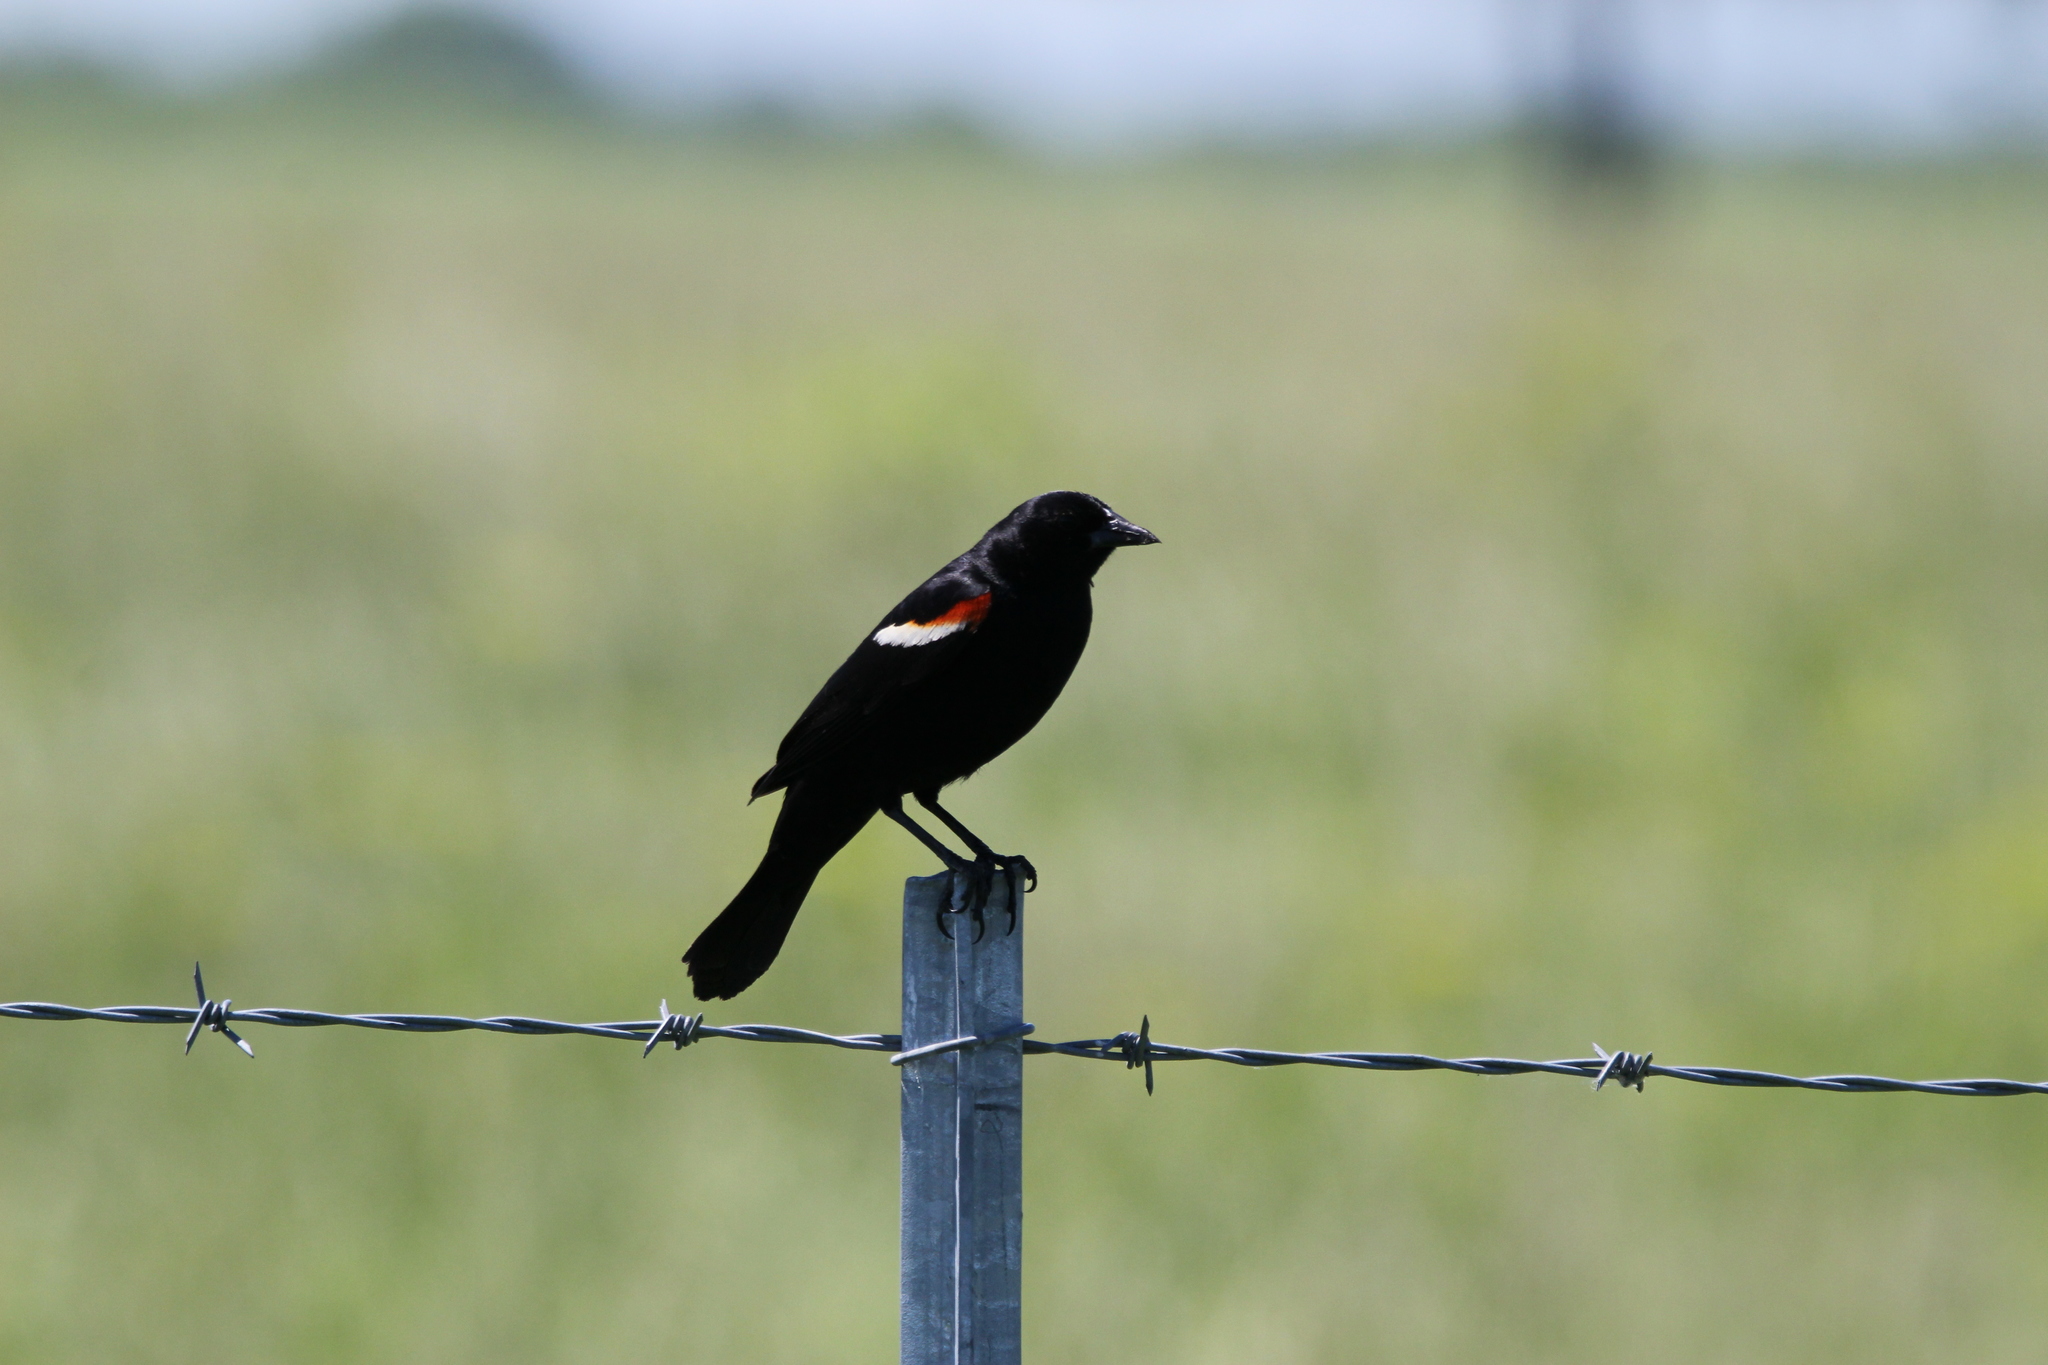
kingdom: Animalia
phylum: Chordata
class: Aves
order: Passeriformes
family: Icteridae
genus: Agelaius
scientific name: Agelaius phoeniceus
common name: Red-winged blackbird
